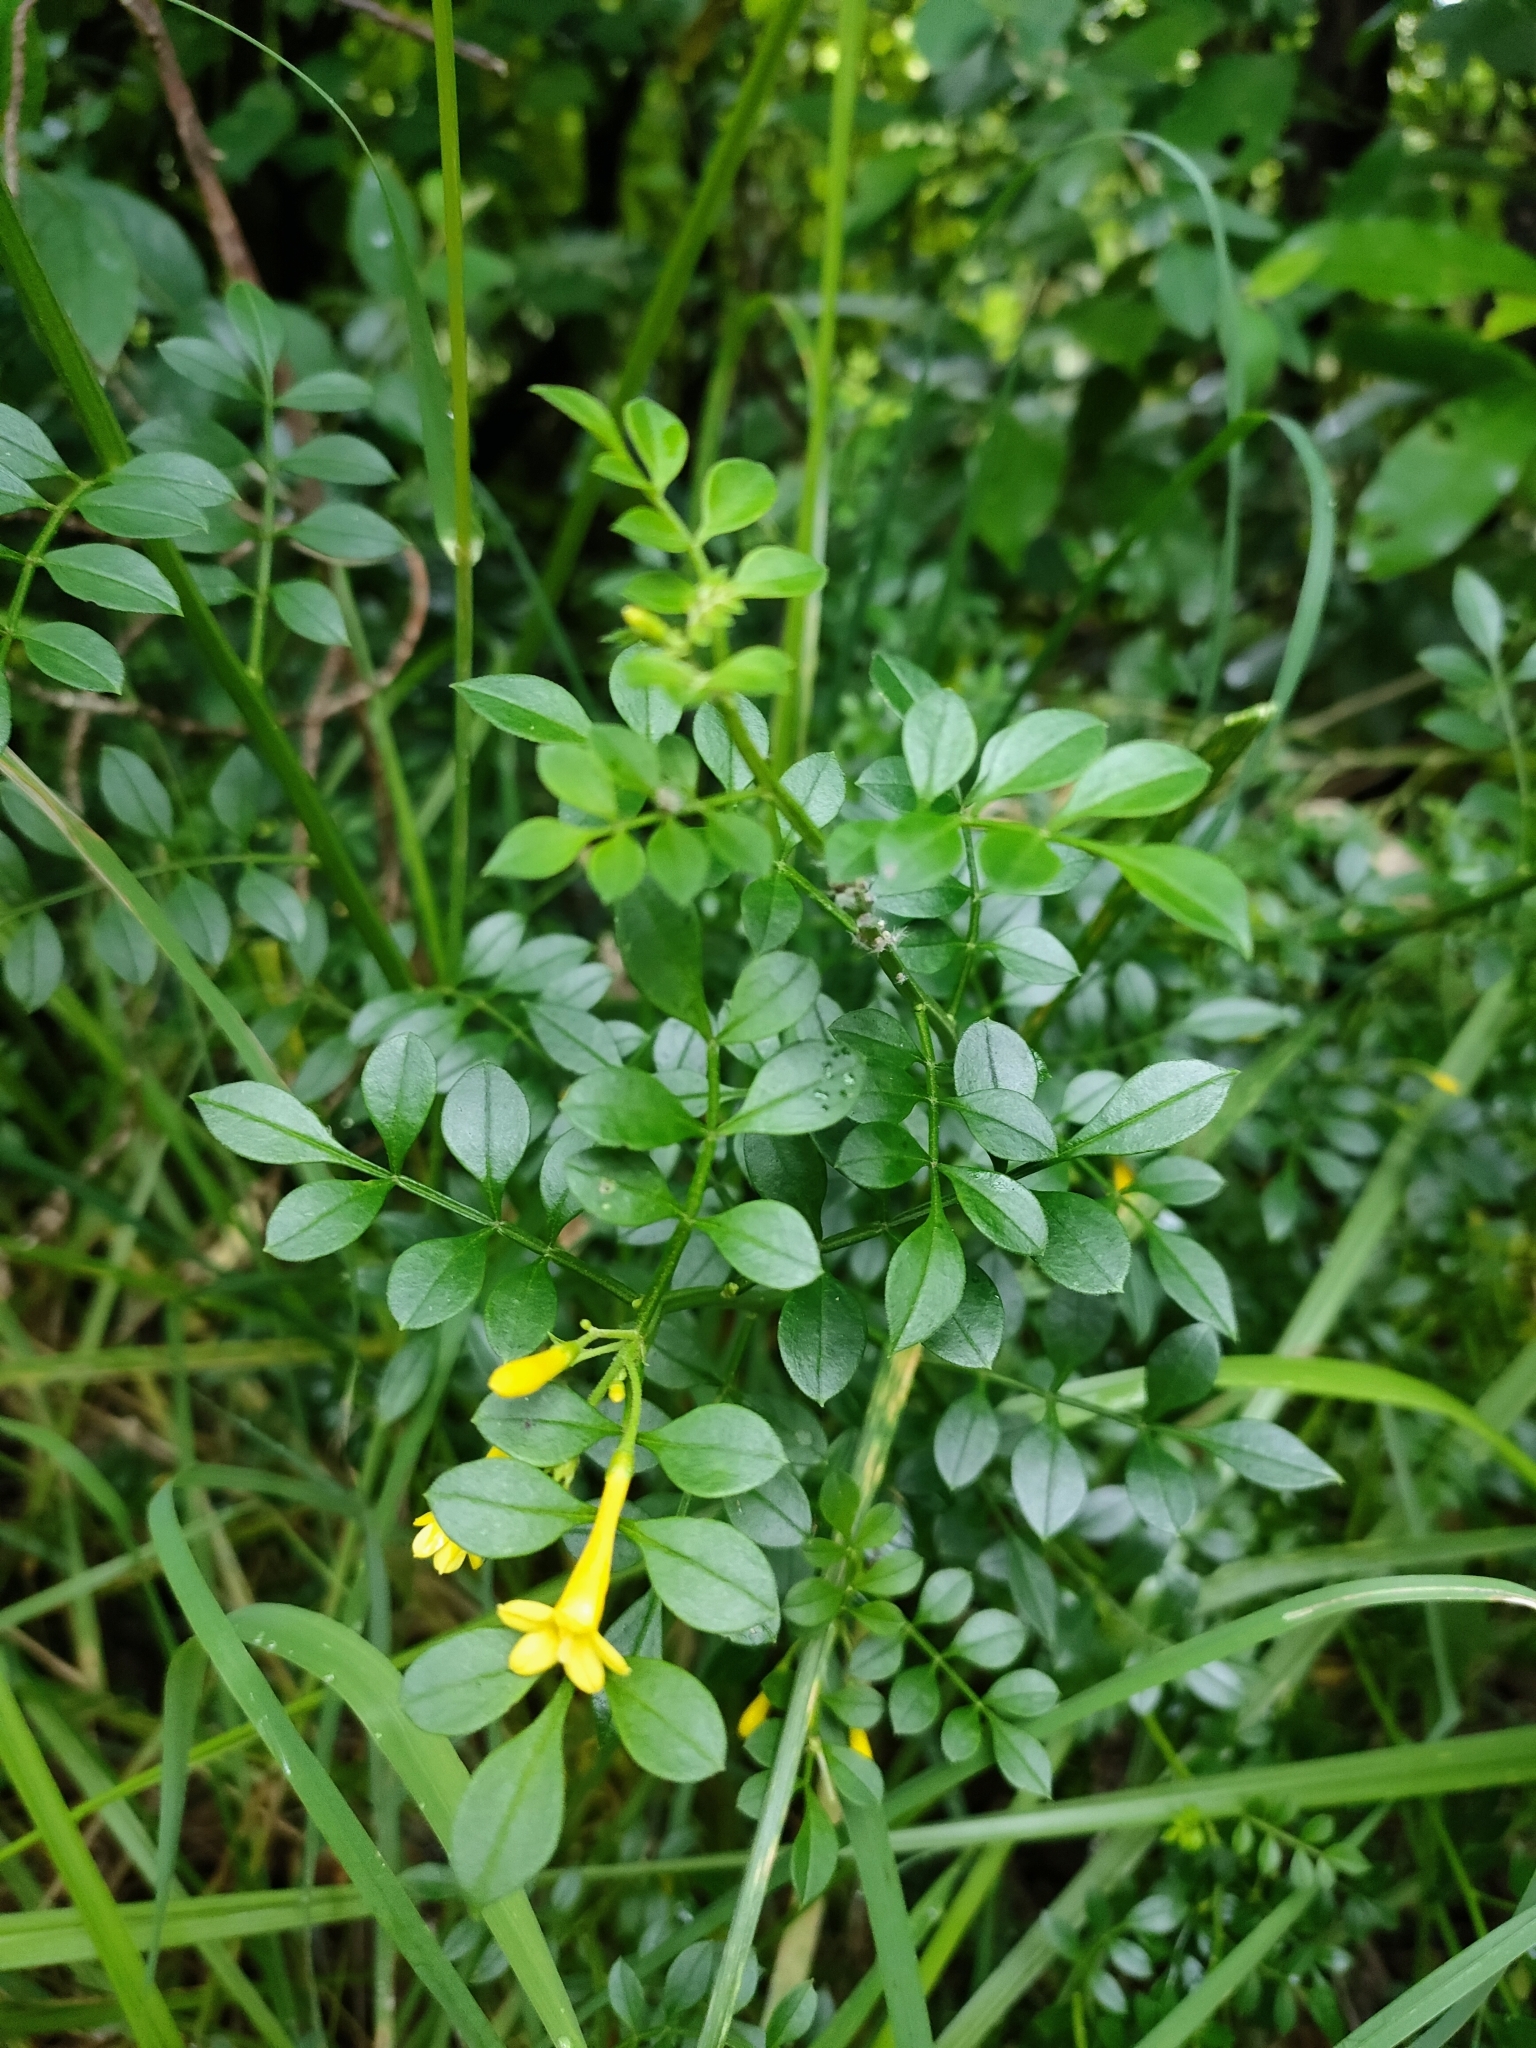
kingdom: Plantae
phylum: Tracheophyta
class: Magnoliopsida
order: Lamiales
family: Oleaceae
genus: Chrysojasminum
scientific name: Chrysojasminum humile
